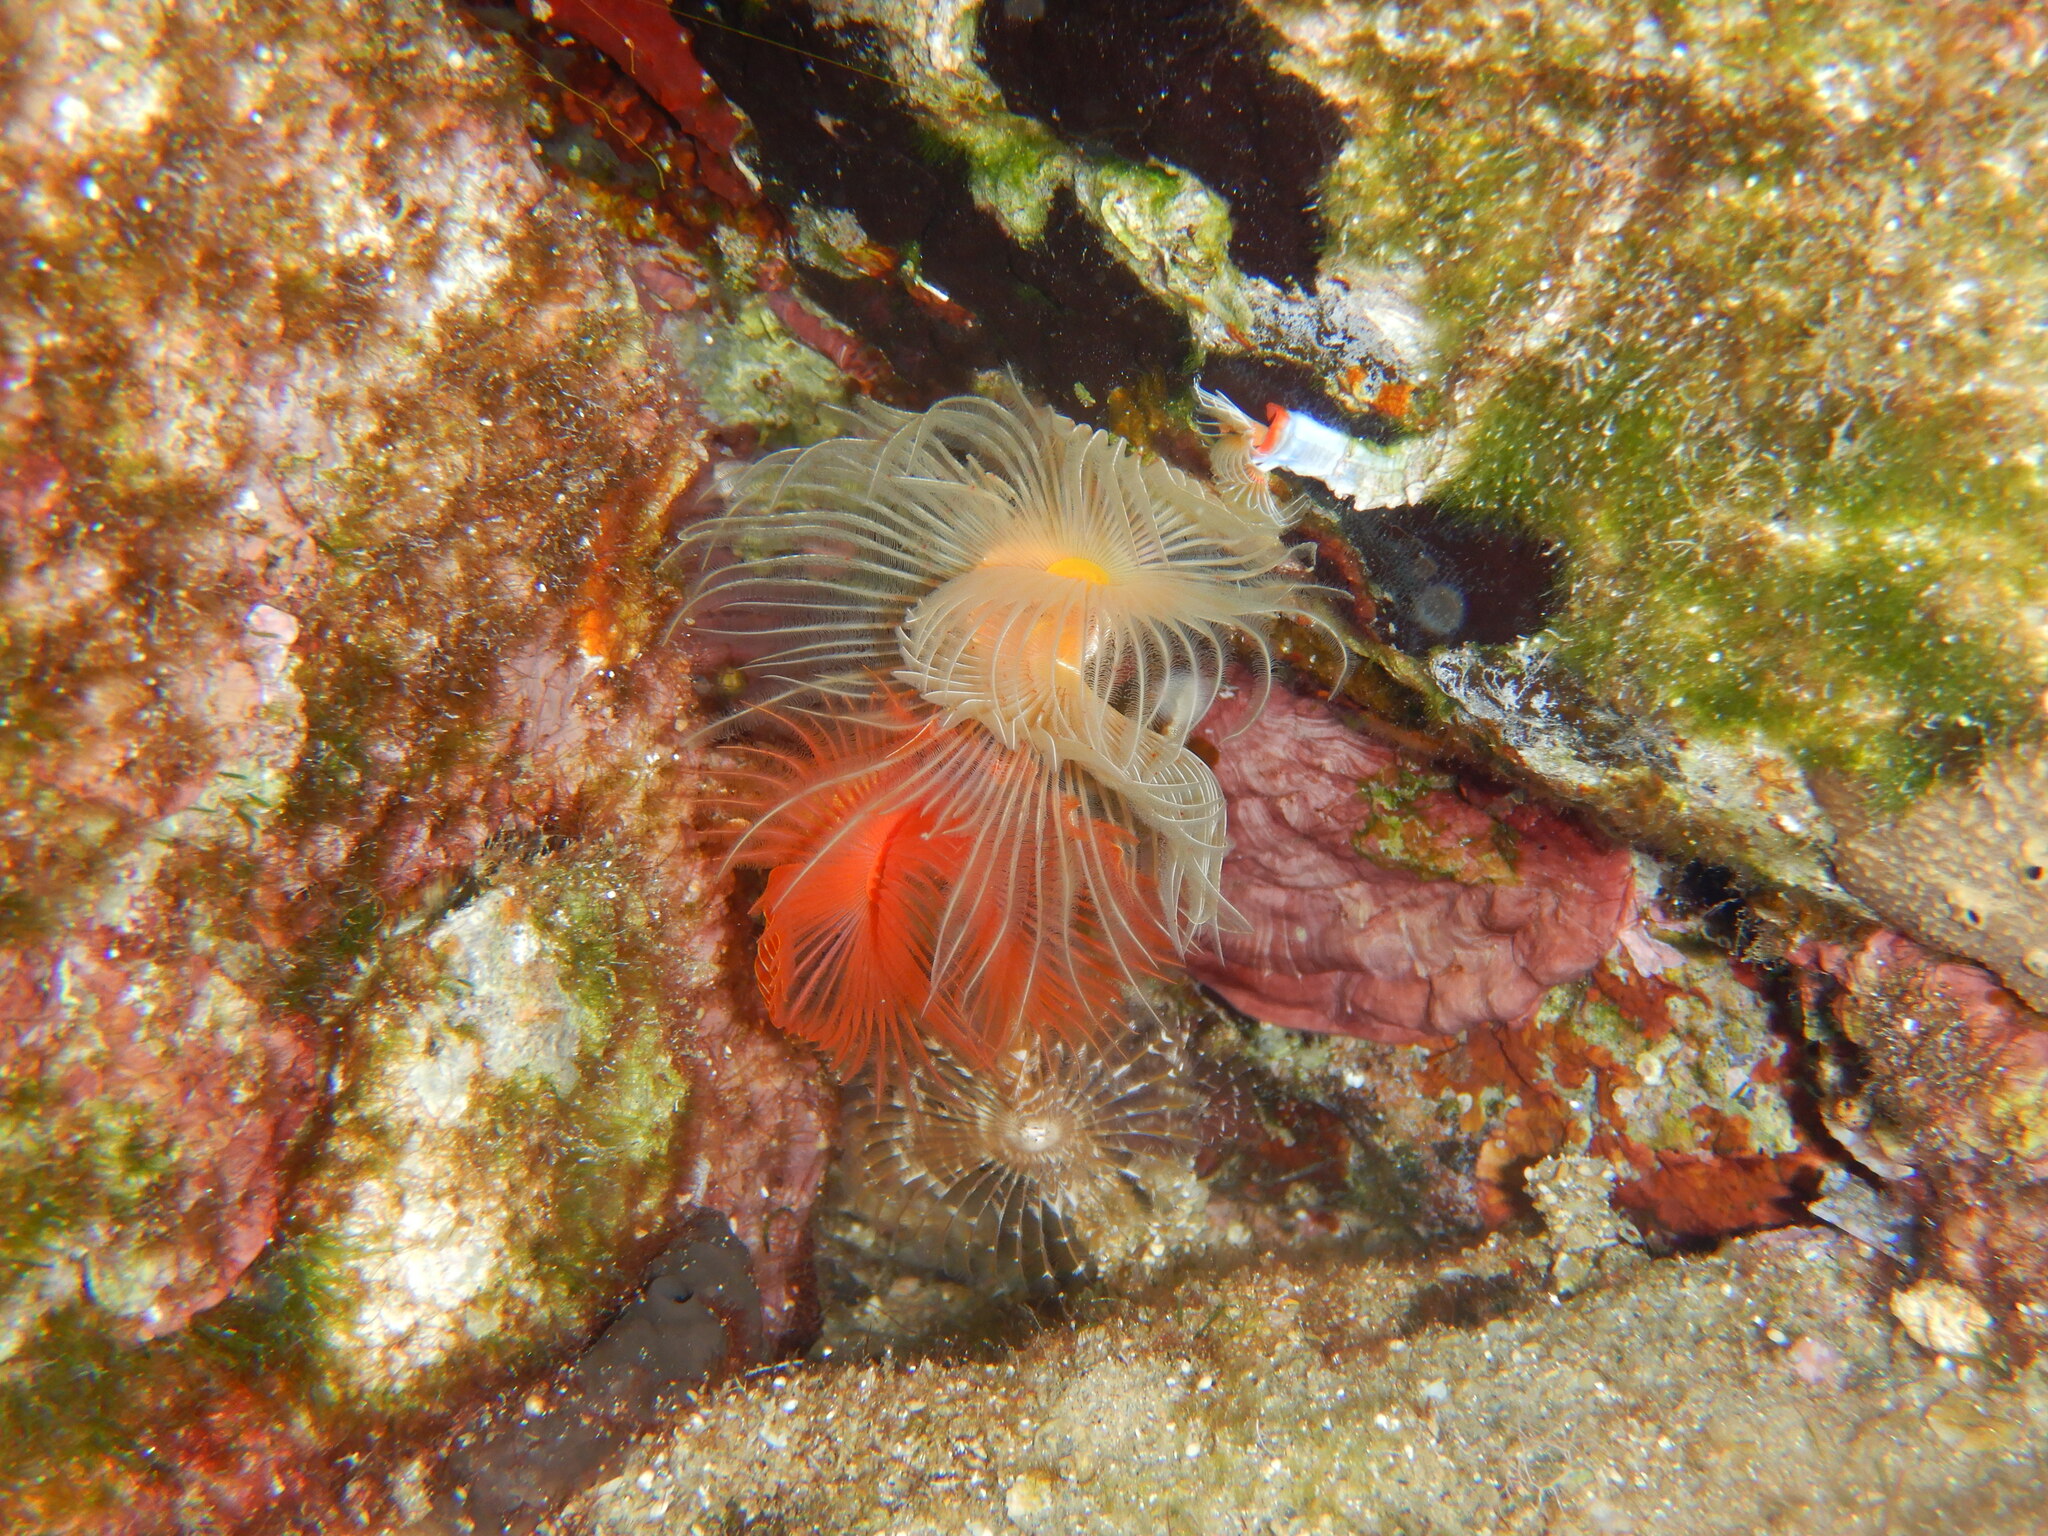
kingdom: Animalia
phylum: Annelida
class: Polychaeta
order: Sabellida
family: Serpulidae
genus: Protula
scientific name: Protula tubularia
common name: Red-spotted horseshoe
